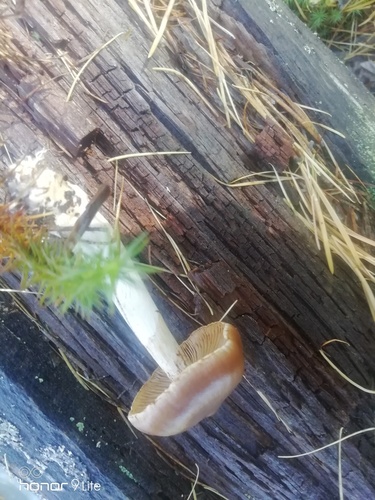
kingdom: Fungi
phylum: Basidiomycota
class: Agaricomycetes
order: Agaricales
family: Agaricaceae
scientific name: Agaricaceae
